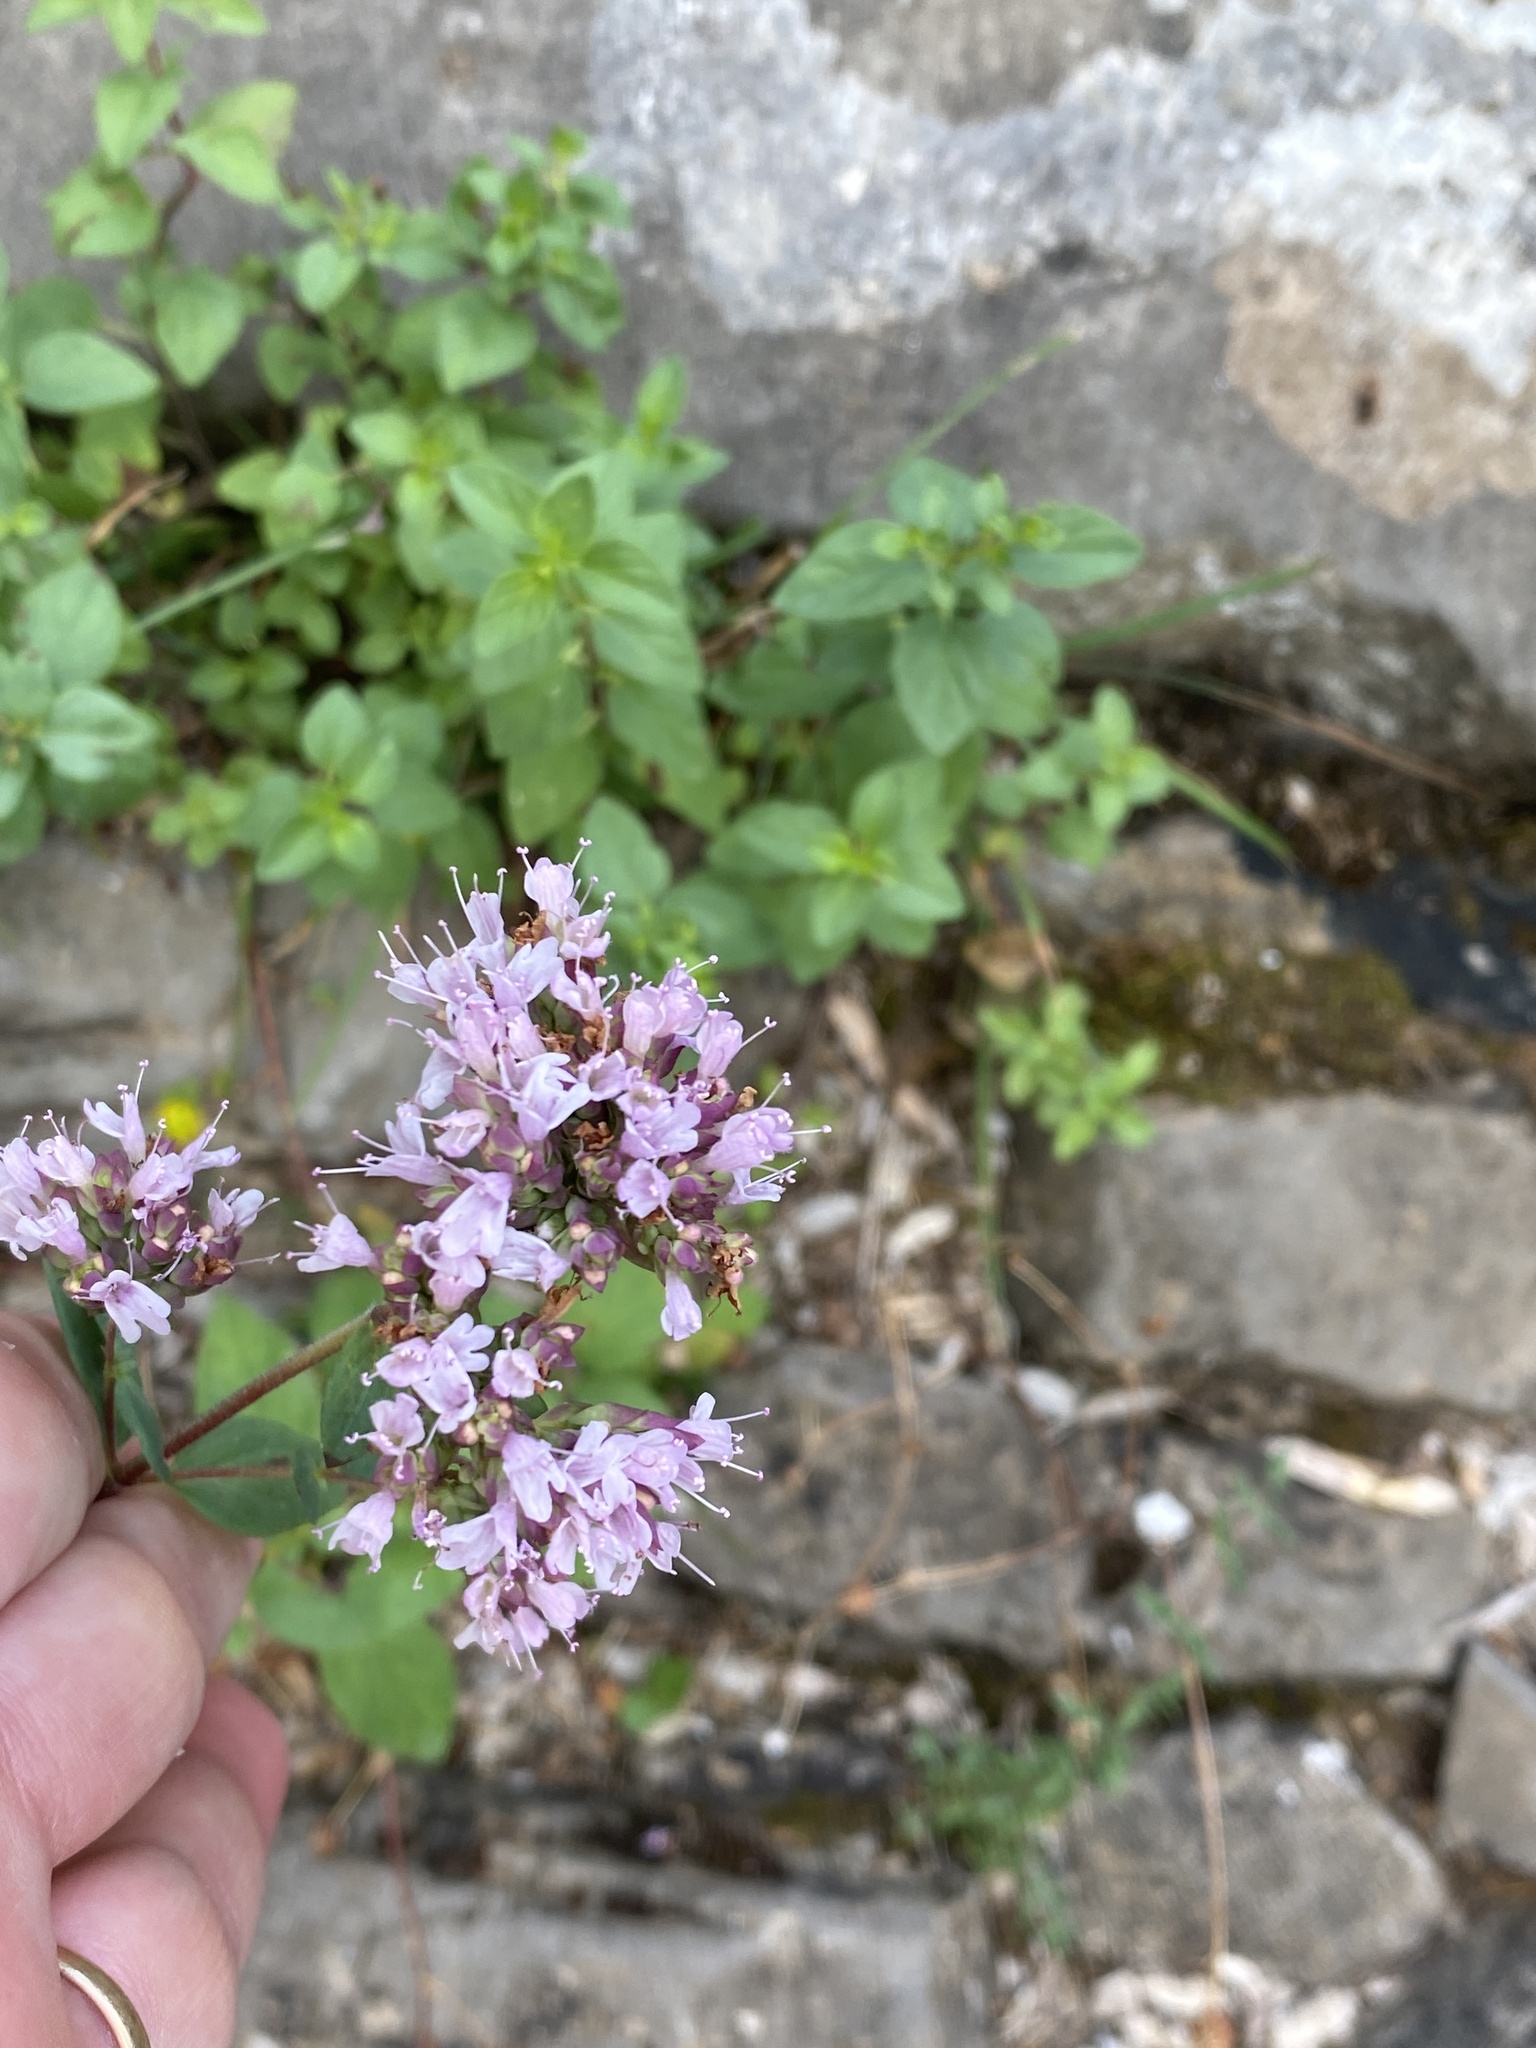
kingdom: Plantae
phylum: Tracheophyta
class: Magnoliopsida
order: Lamiales
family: Lamiaceae
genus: Origanum
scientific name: Origanum vulgare
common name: Wild marjoram
